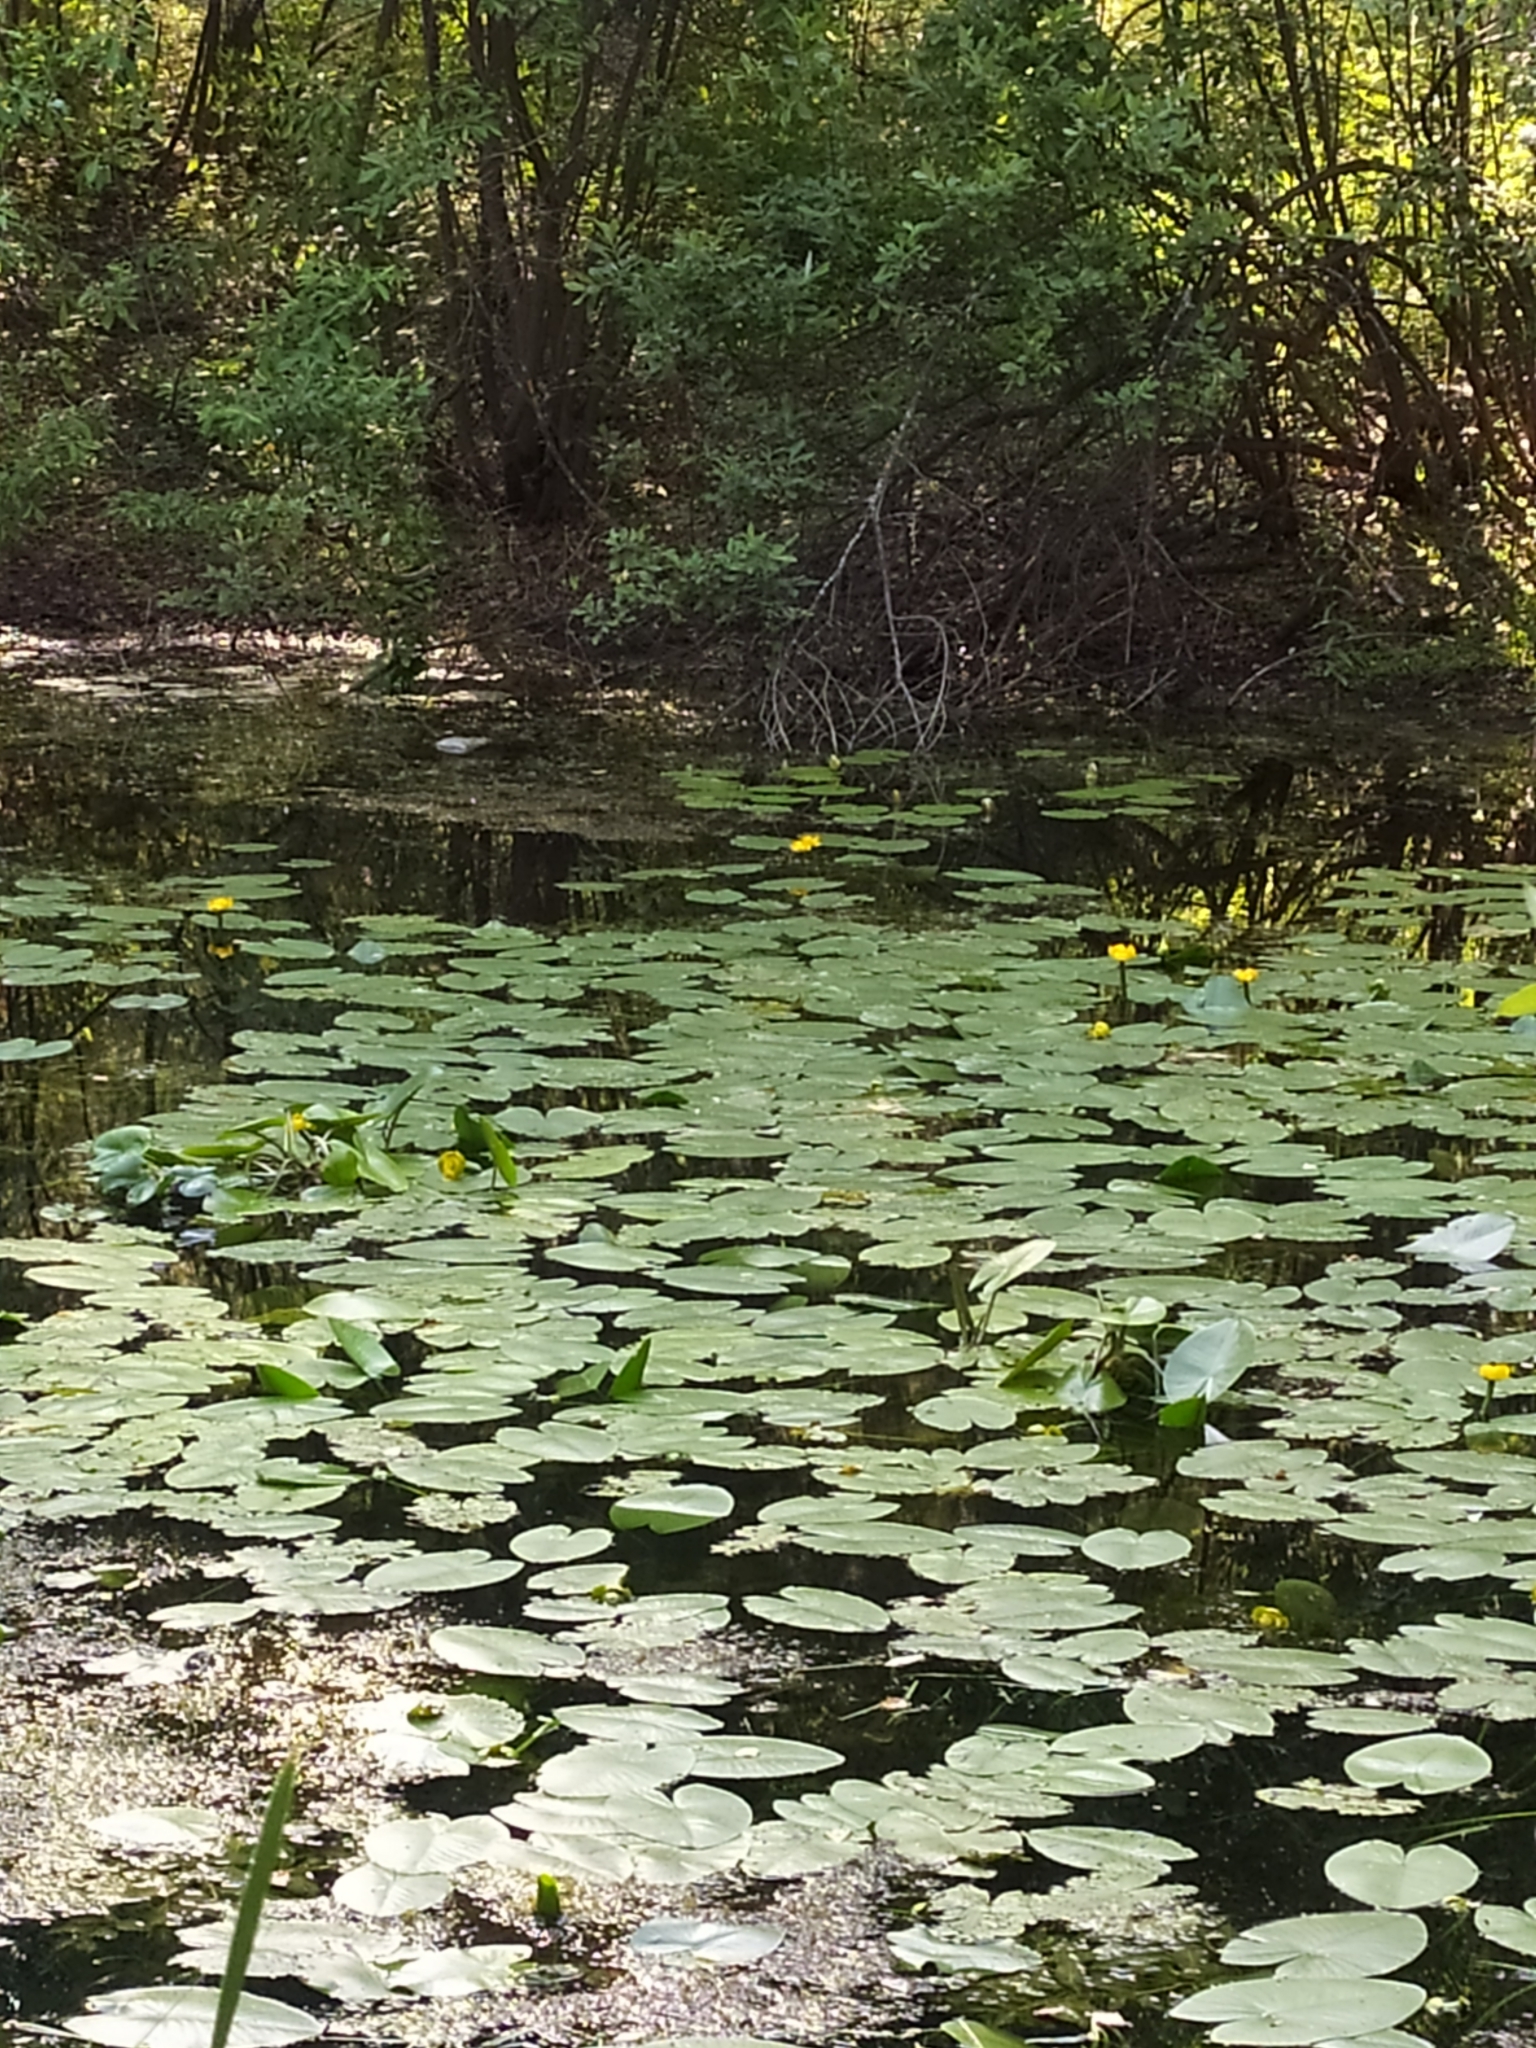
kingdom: Plantae
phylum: Tracheophyta
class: Magnoliopsida
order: Nymphaeales
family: Nymphaeaceae
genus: Nuphar
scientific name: Nuphar lutea
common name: Yellow water-lily
